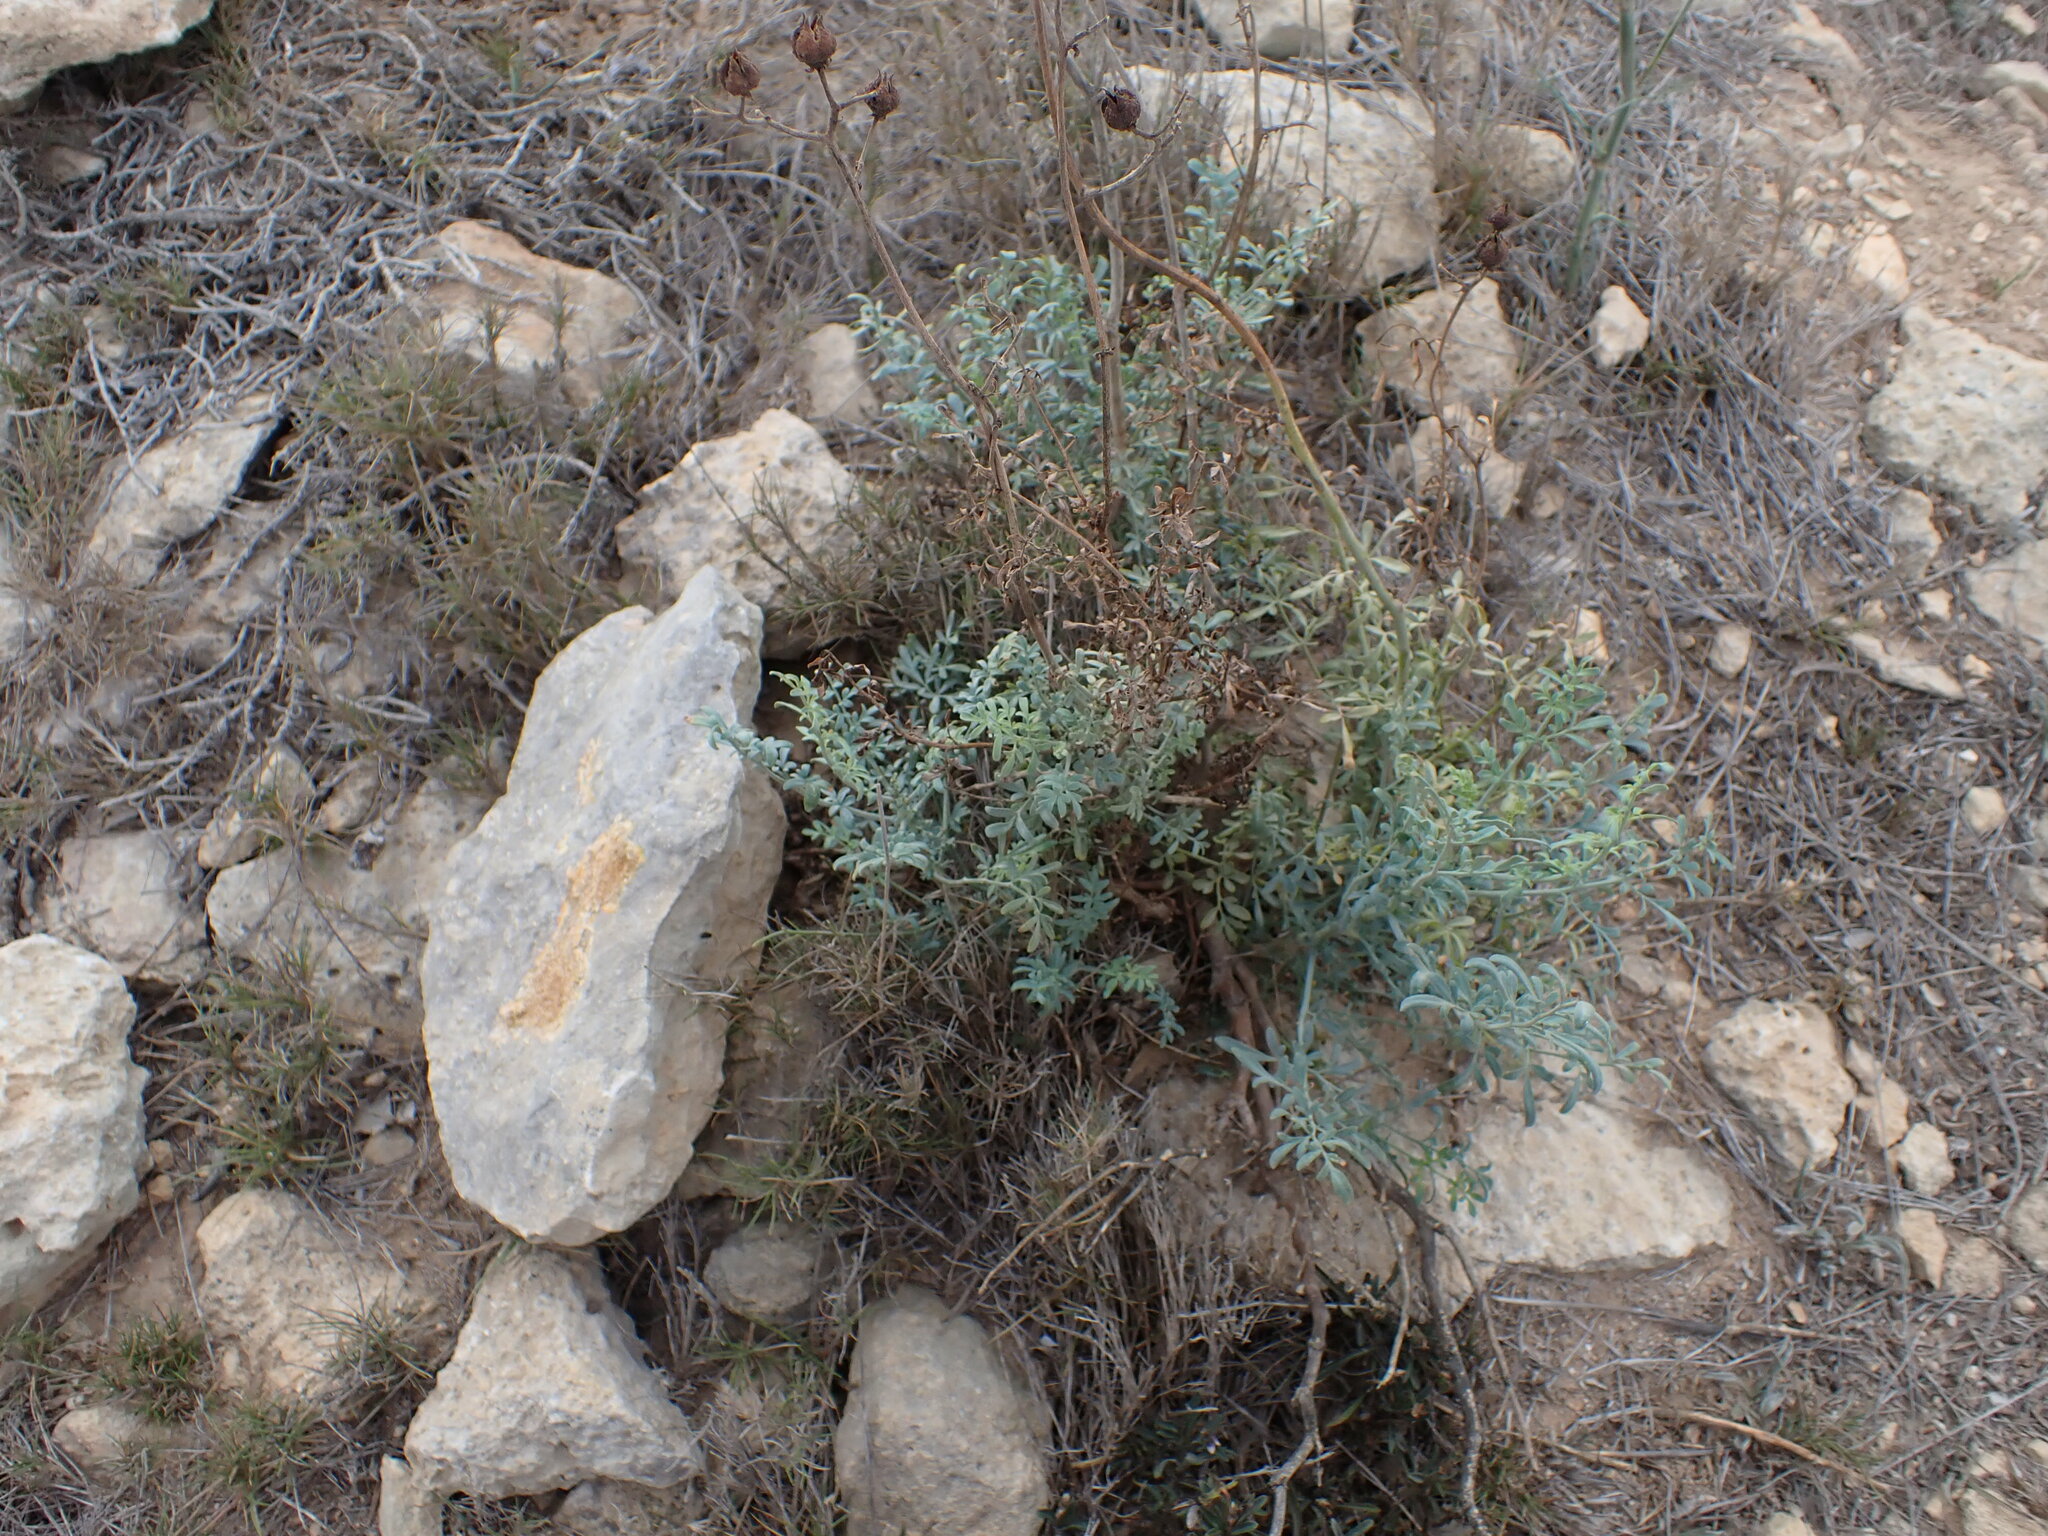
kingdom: Plantae
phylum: Tracheophyta
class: Magnoliopsida
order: Sapindales
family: Rutaceae
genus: Ruta
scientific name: Ruta angustifolia
